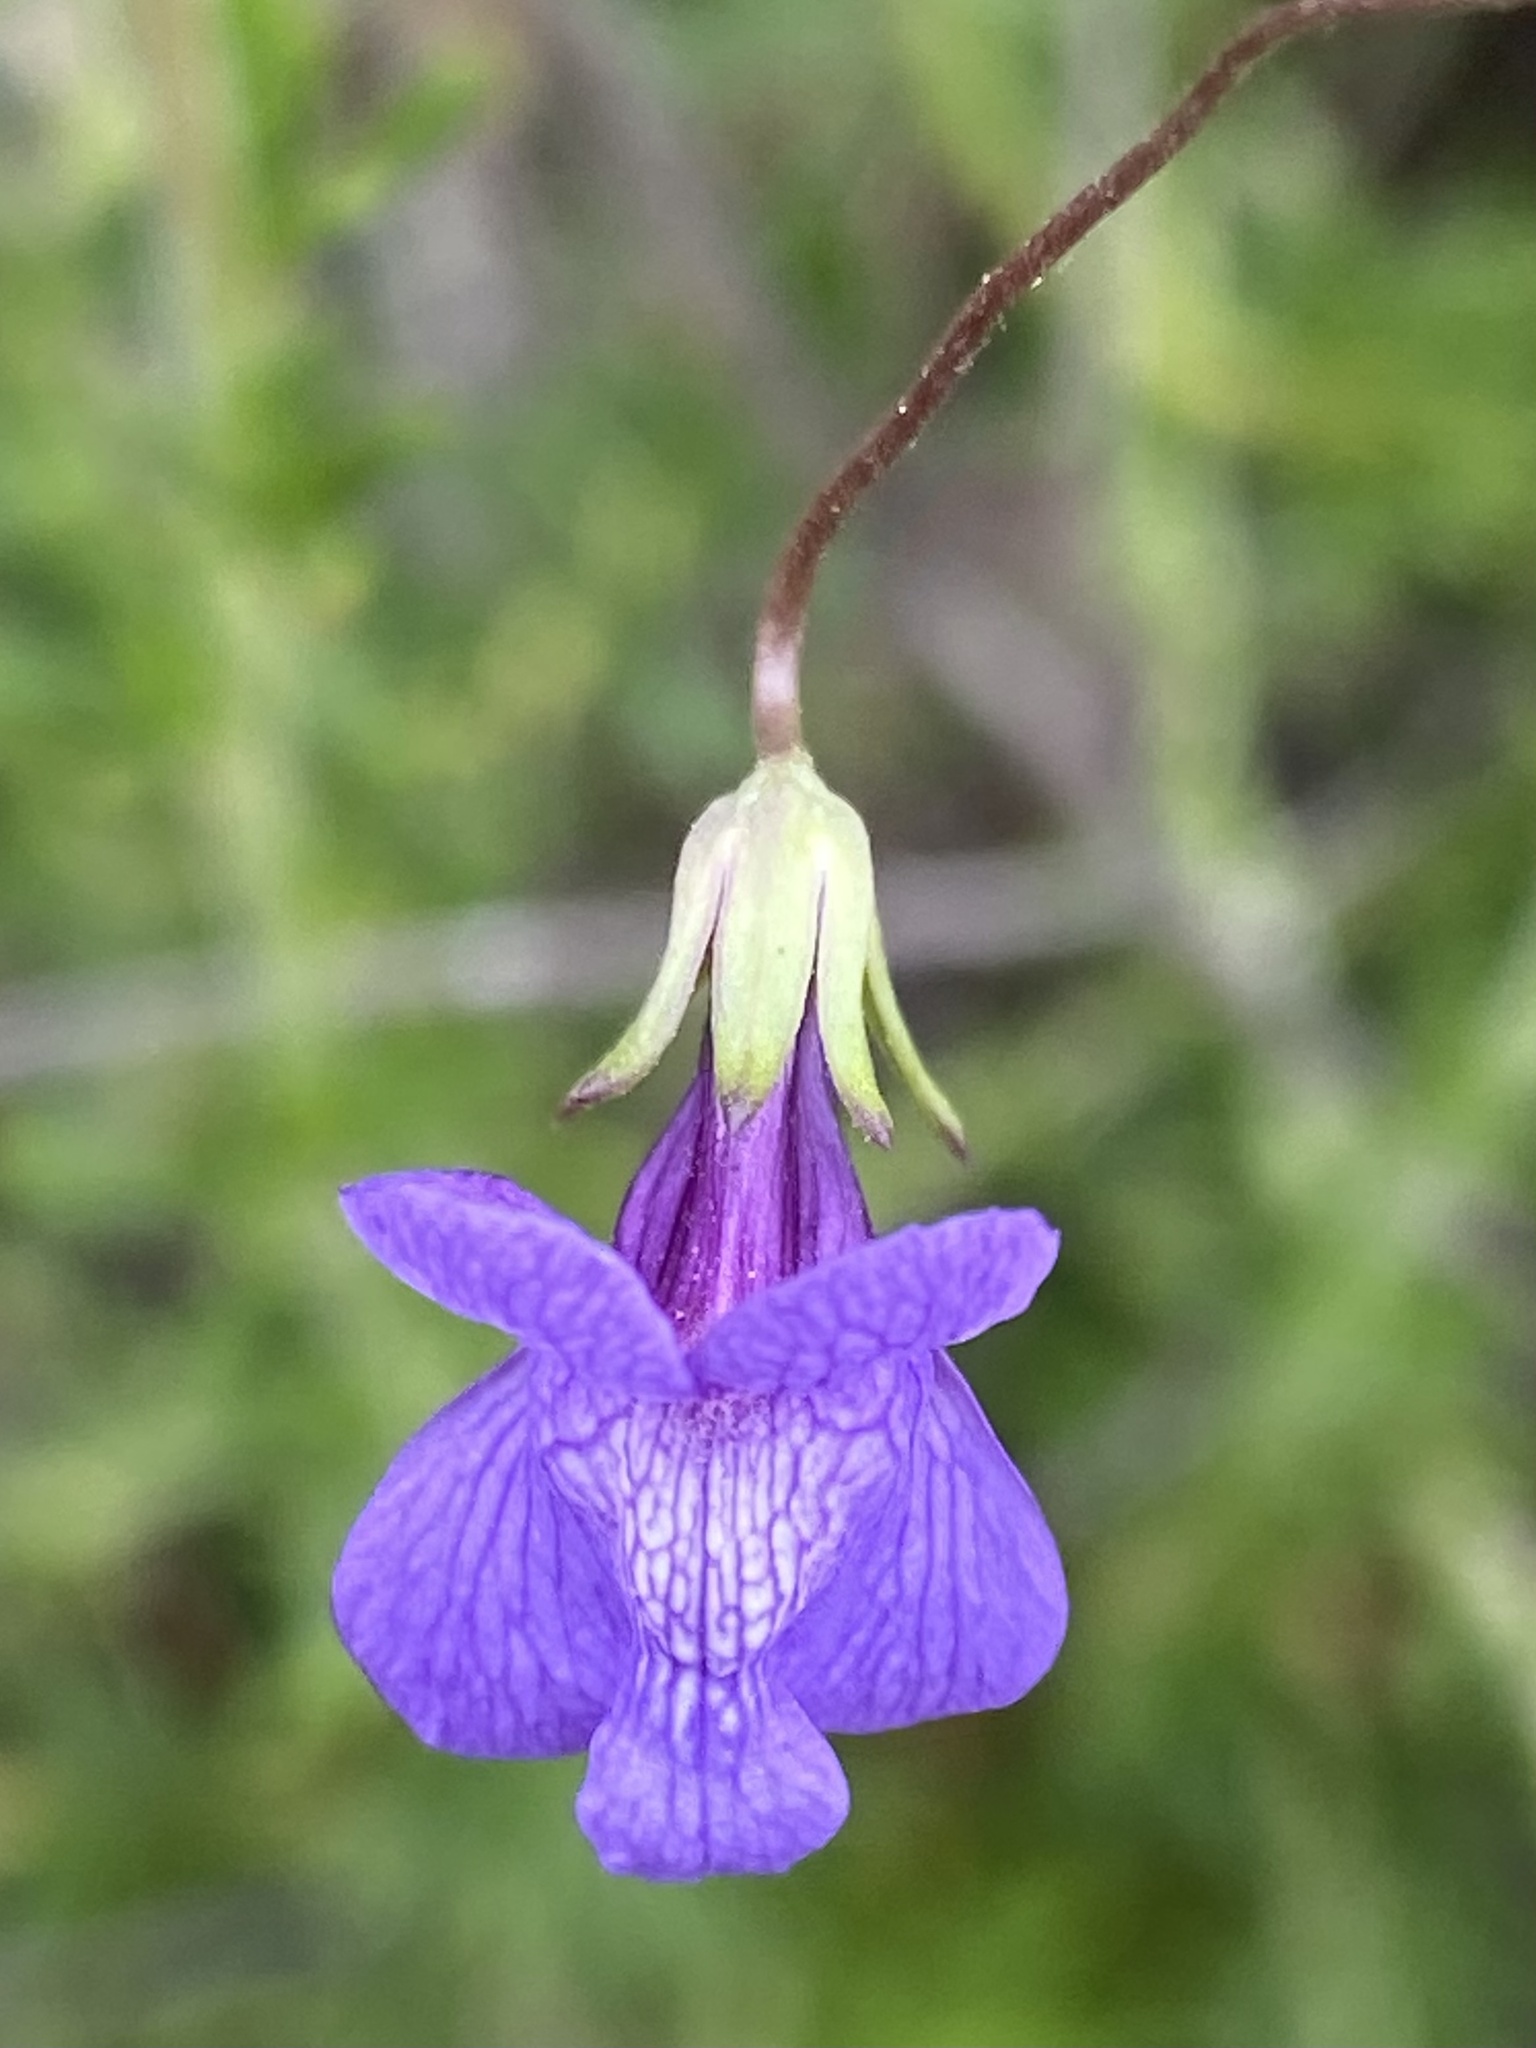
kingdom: Plantae
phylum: Tracheophyta
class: Magnoliopsida
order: Lamiales
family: Plantaginaceae
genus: Neogaerrhinum
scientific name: Neogaerrhinum strictum
